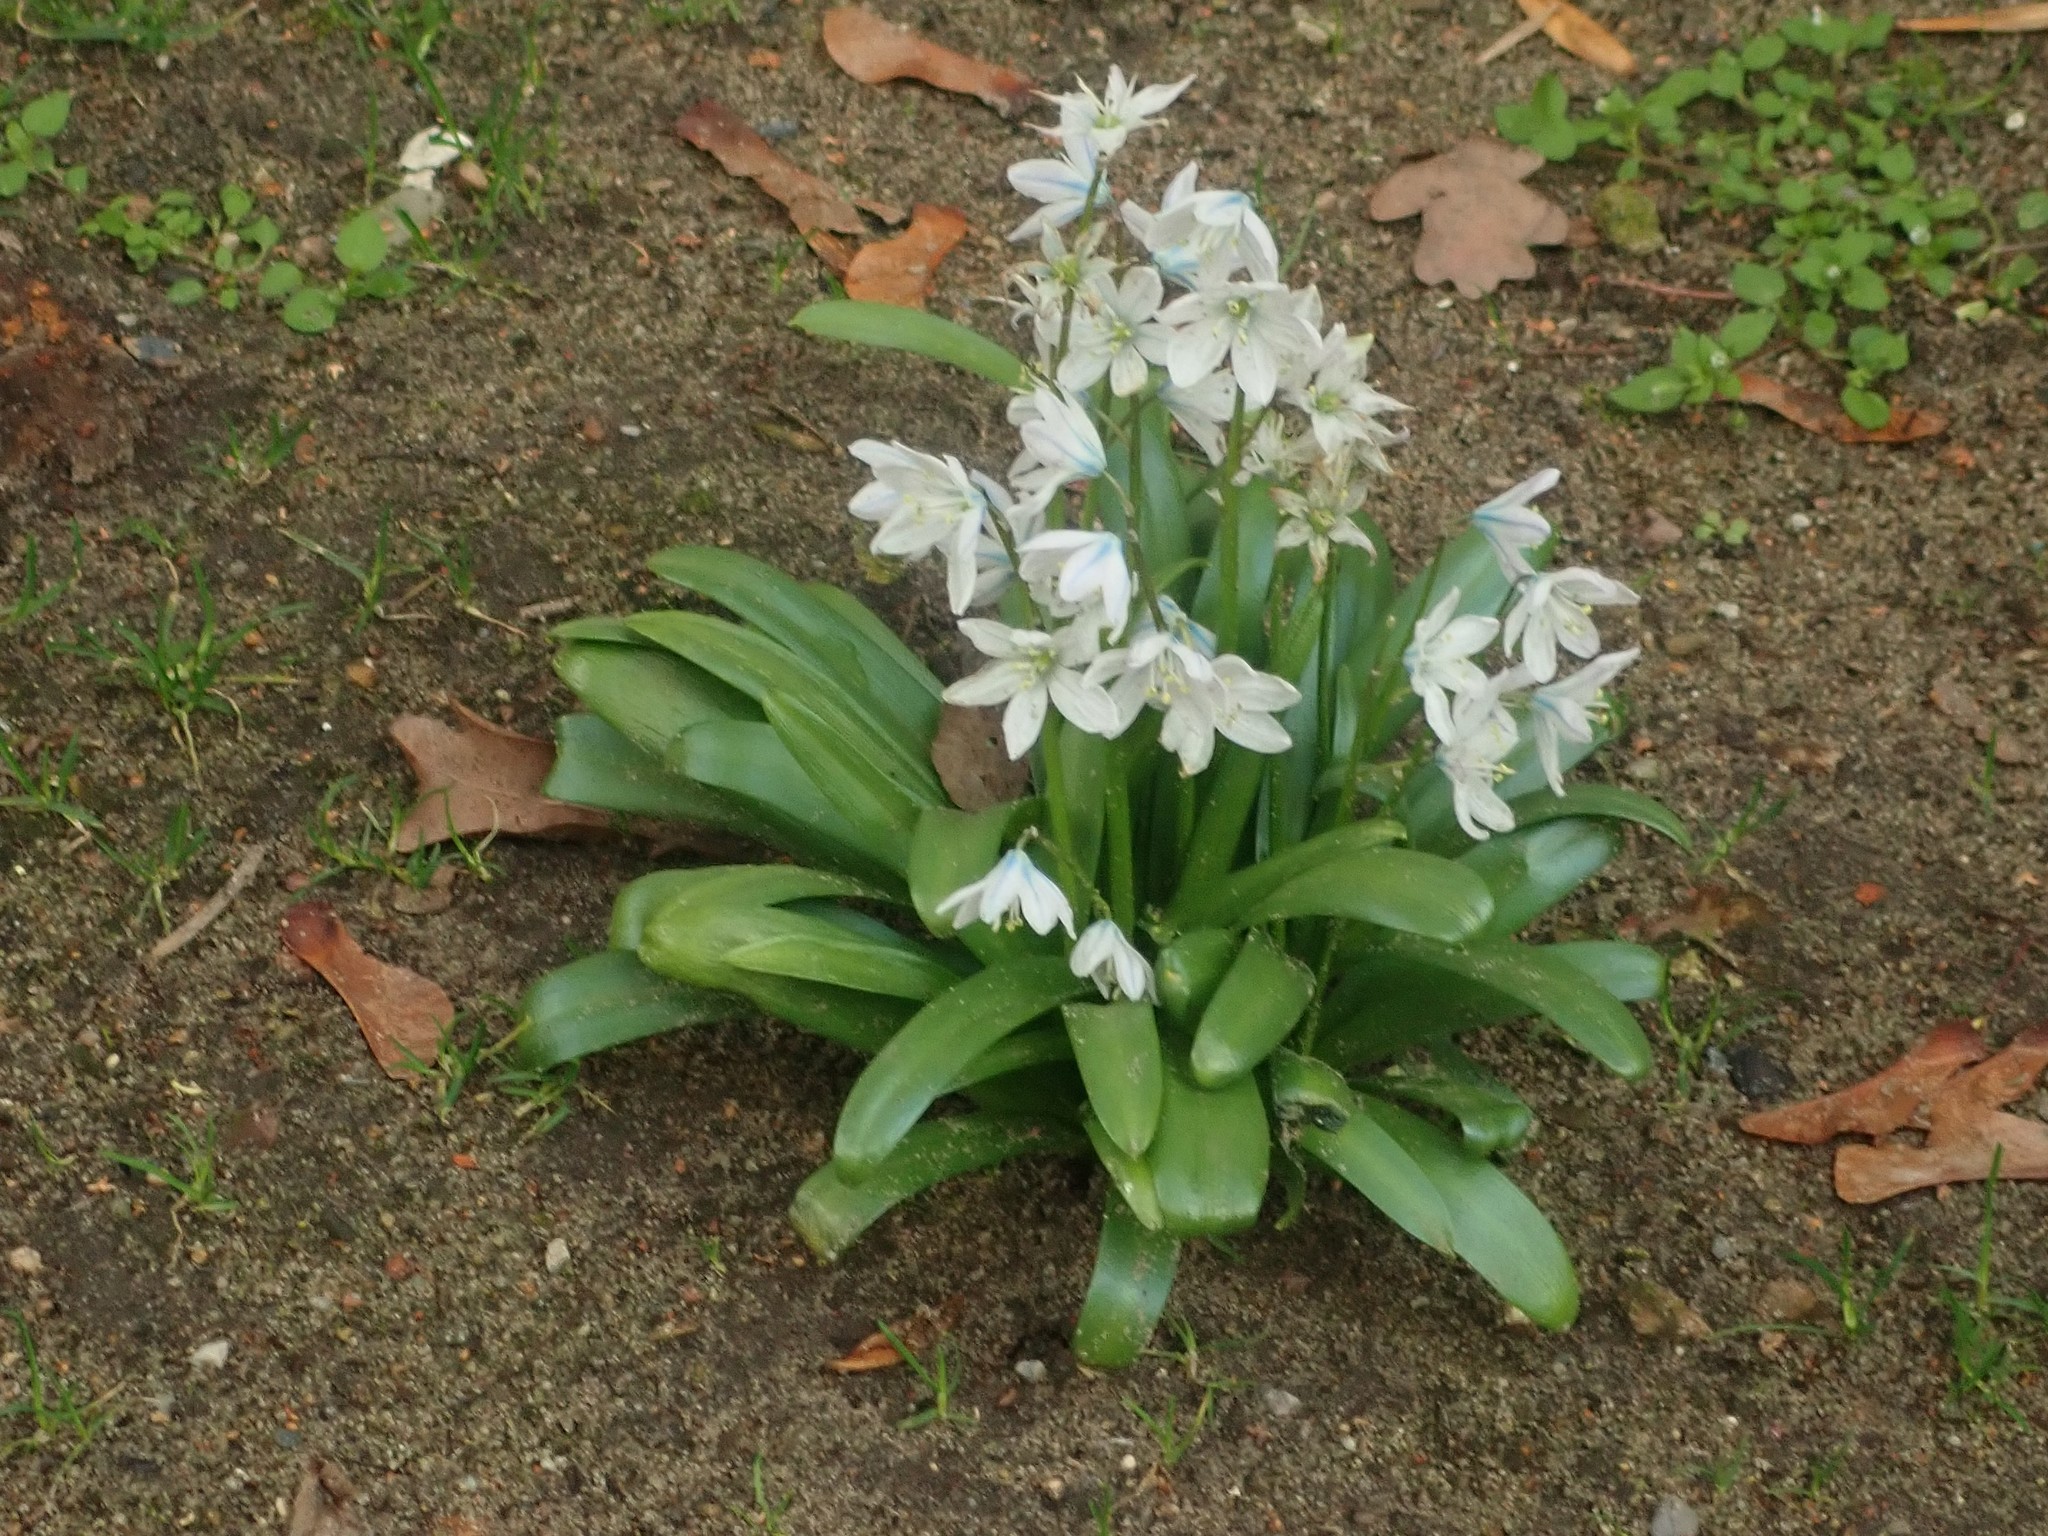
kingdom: Plantae
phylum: Tracheophyta
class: Liliopsida
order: Asparagales
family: Asparagaceae
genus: Scilla
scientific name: Scilla mischtschenkoana
